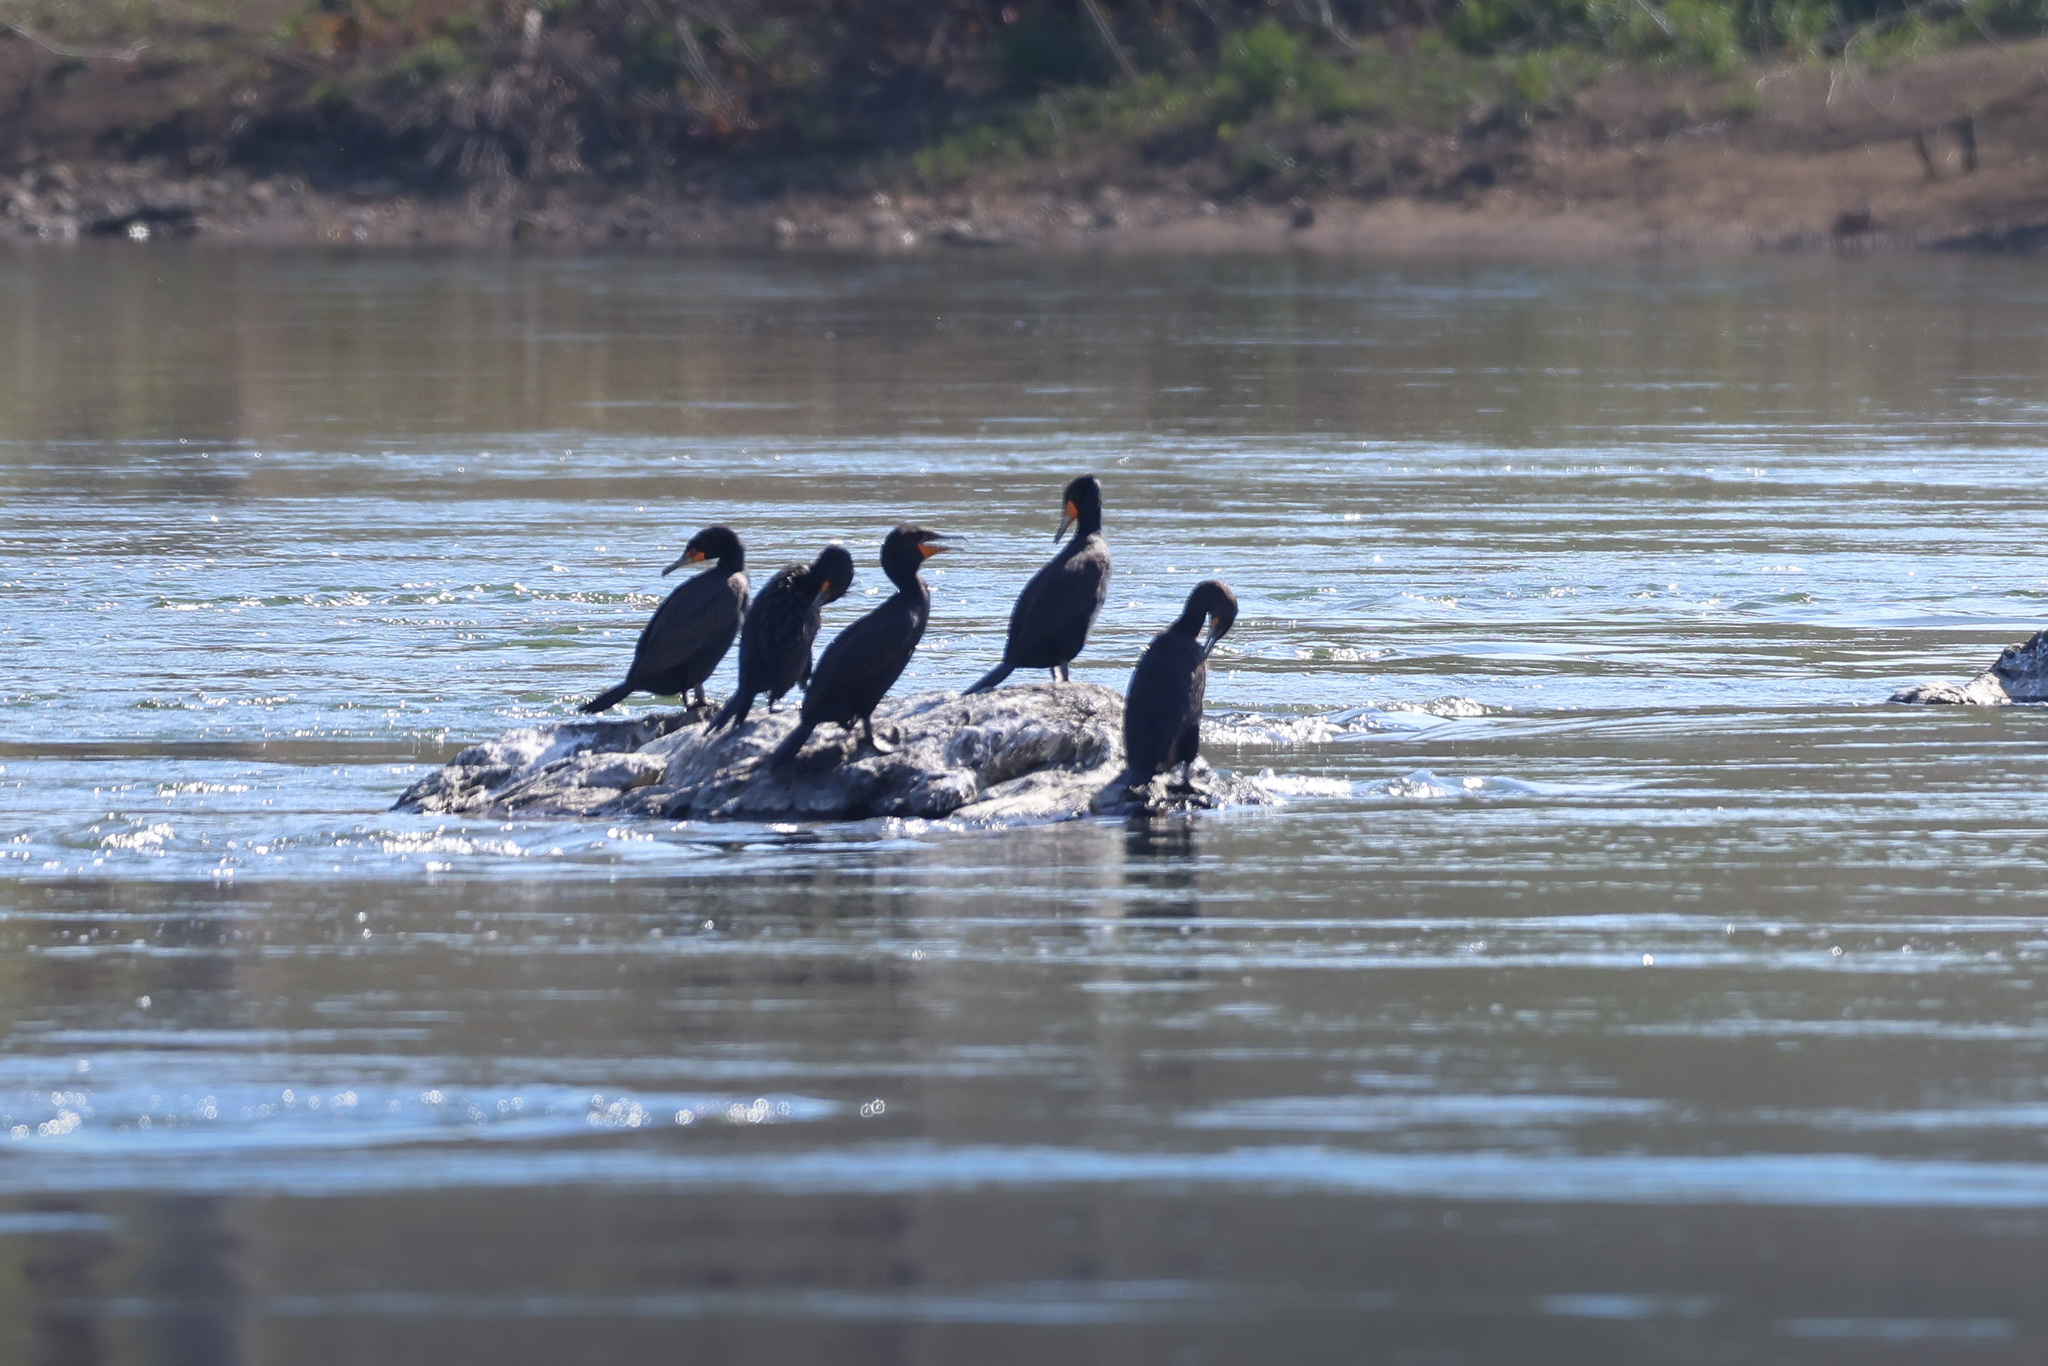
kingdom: Animalia
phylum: Chordata
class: Aves
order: Suliformes
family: Phalacrocoracidae
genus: Phalacrocorax
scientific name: Phalacrocorax auritus
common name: Double-crested cormorant
